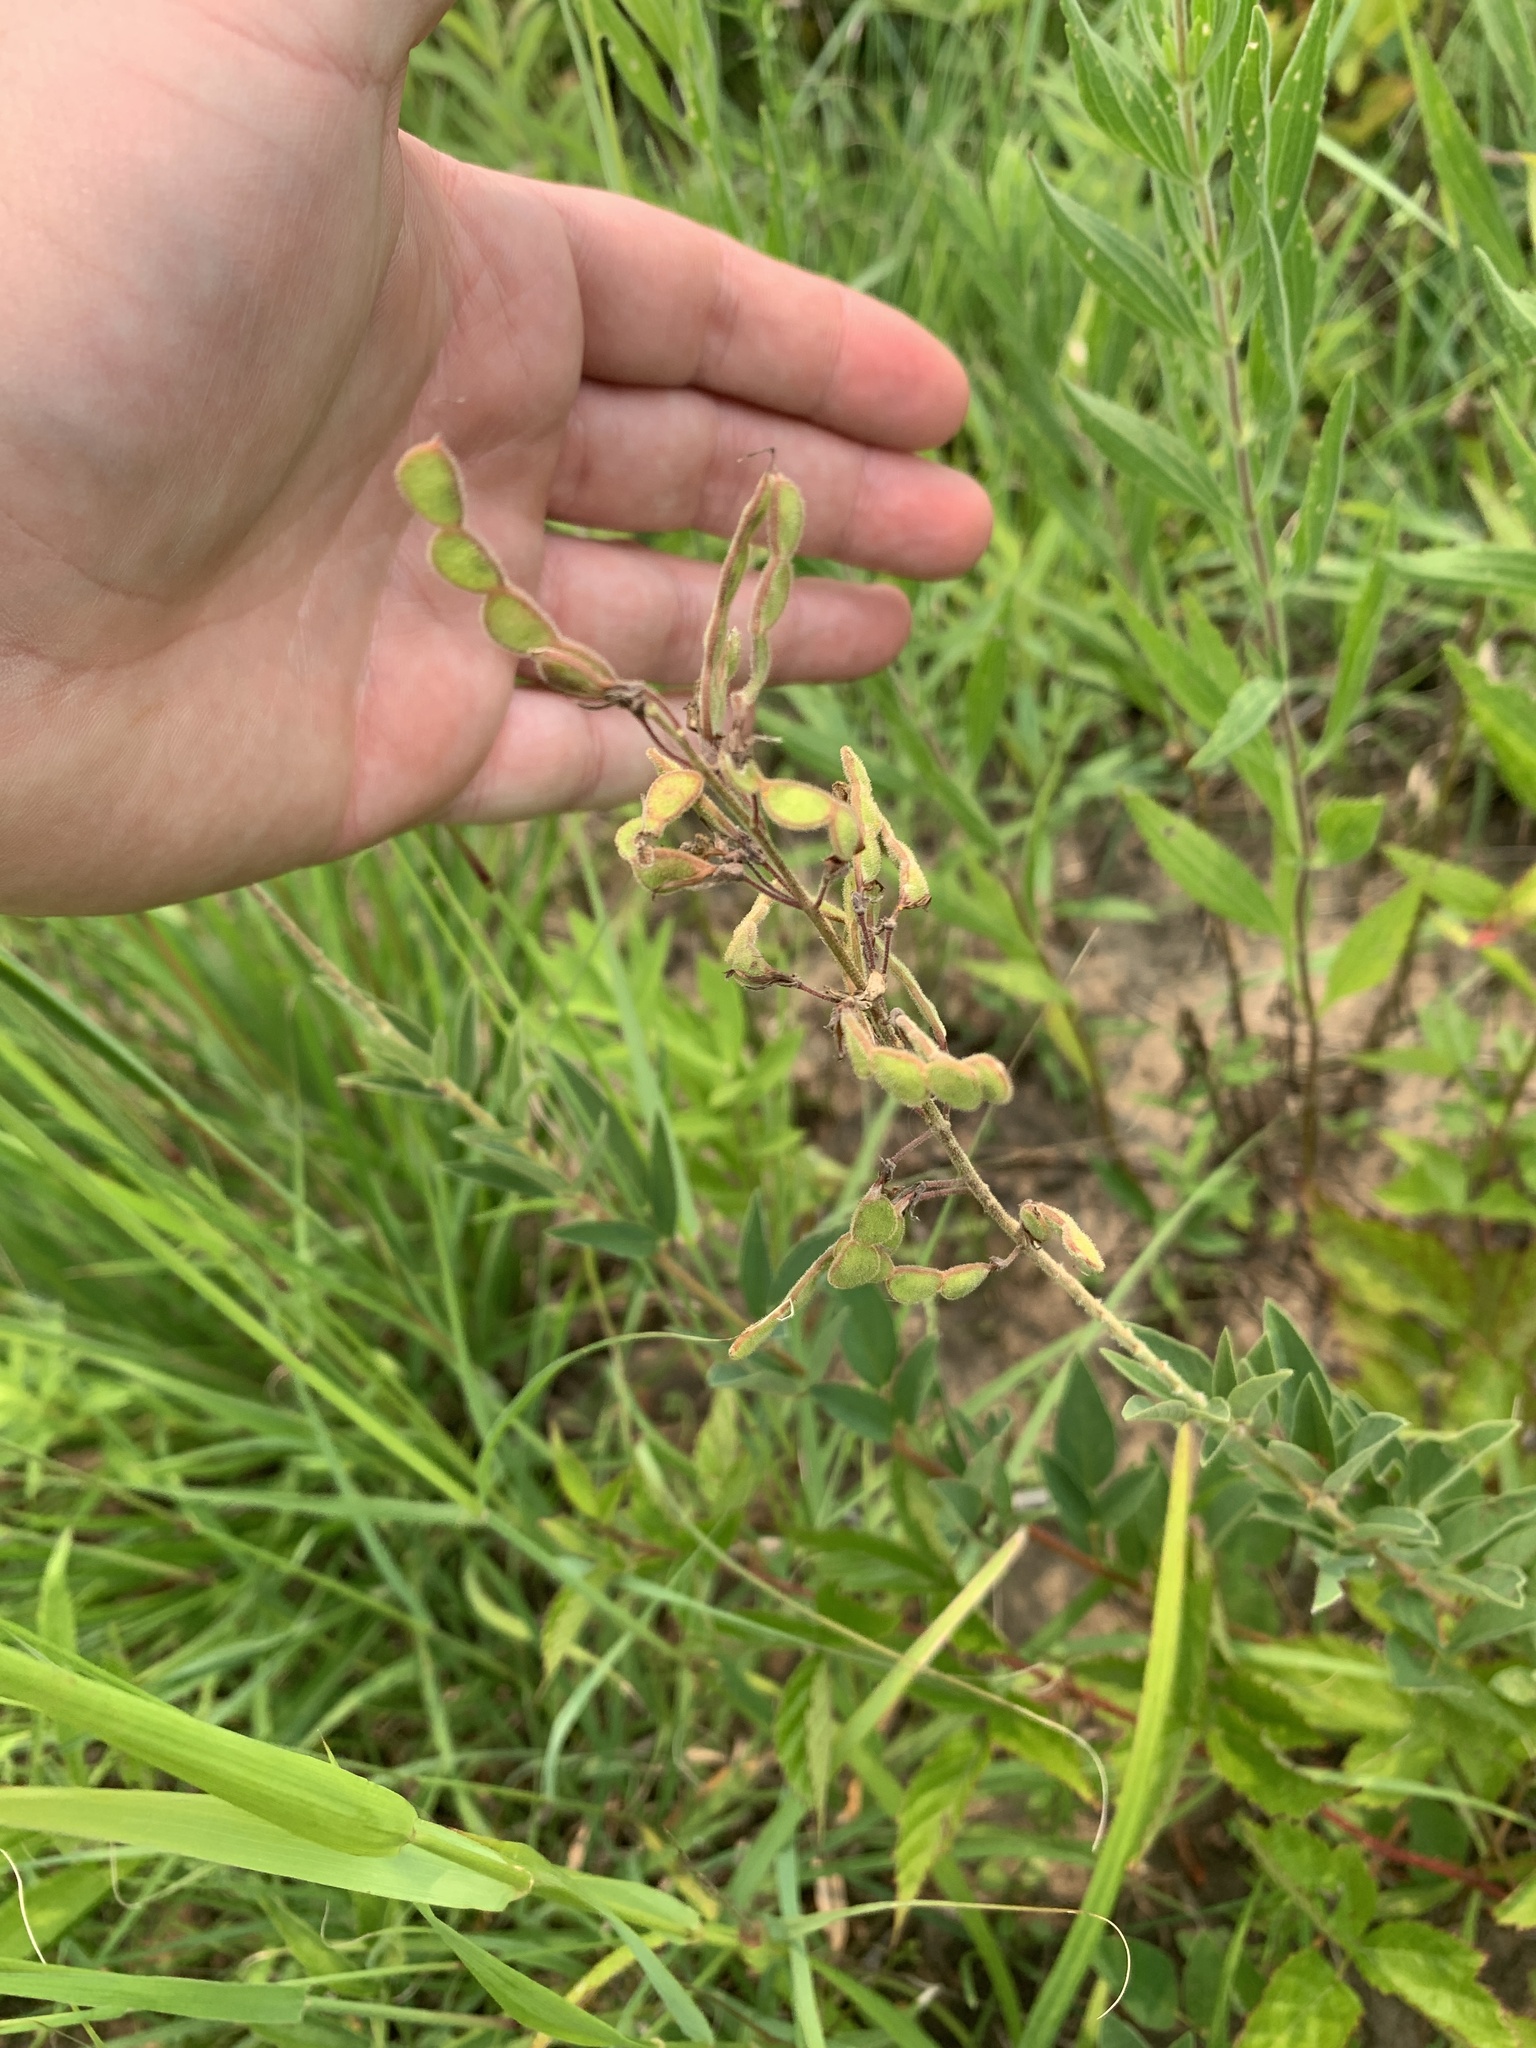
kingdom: Plantae
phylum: Tracheophyta
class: Magnoliopsida
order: Fabales
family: Fabaceae
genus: Desmodium
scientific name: Desmodium canadense
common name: Canada tick-trefoil
